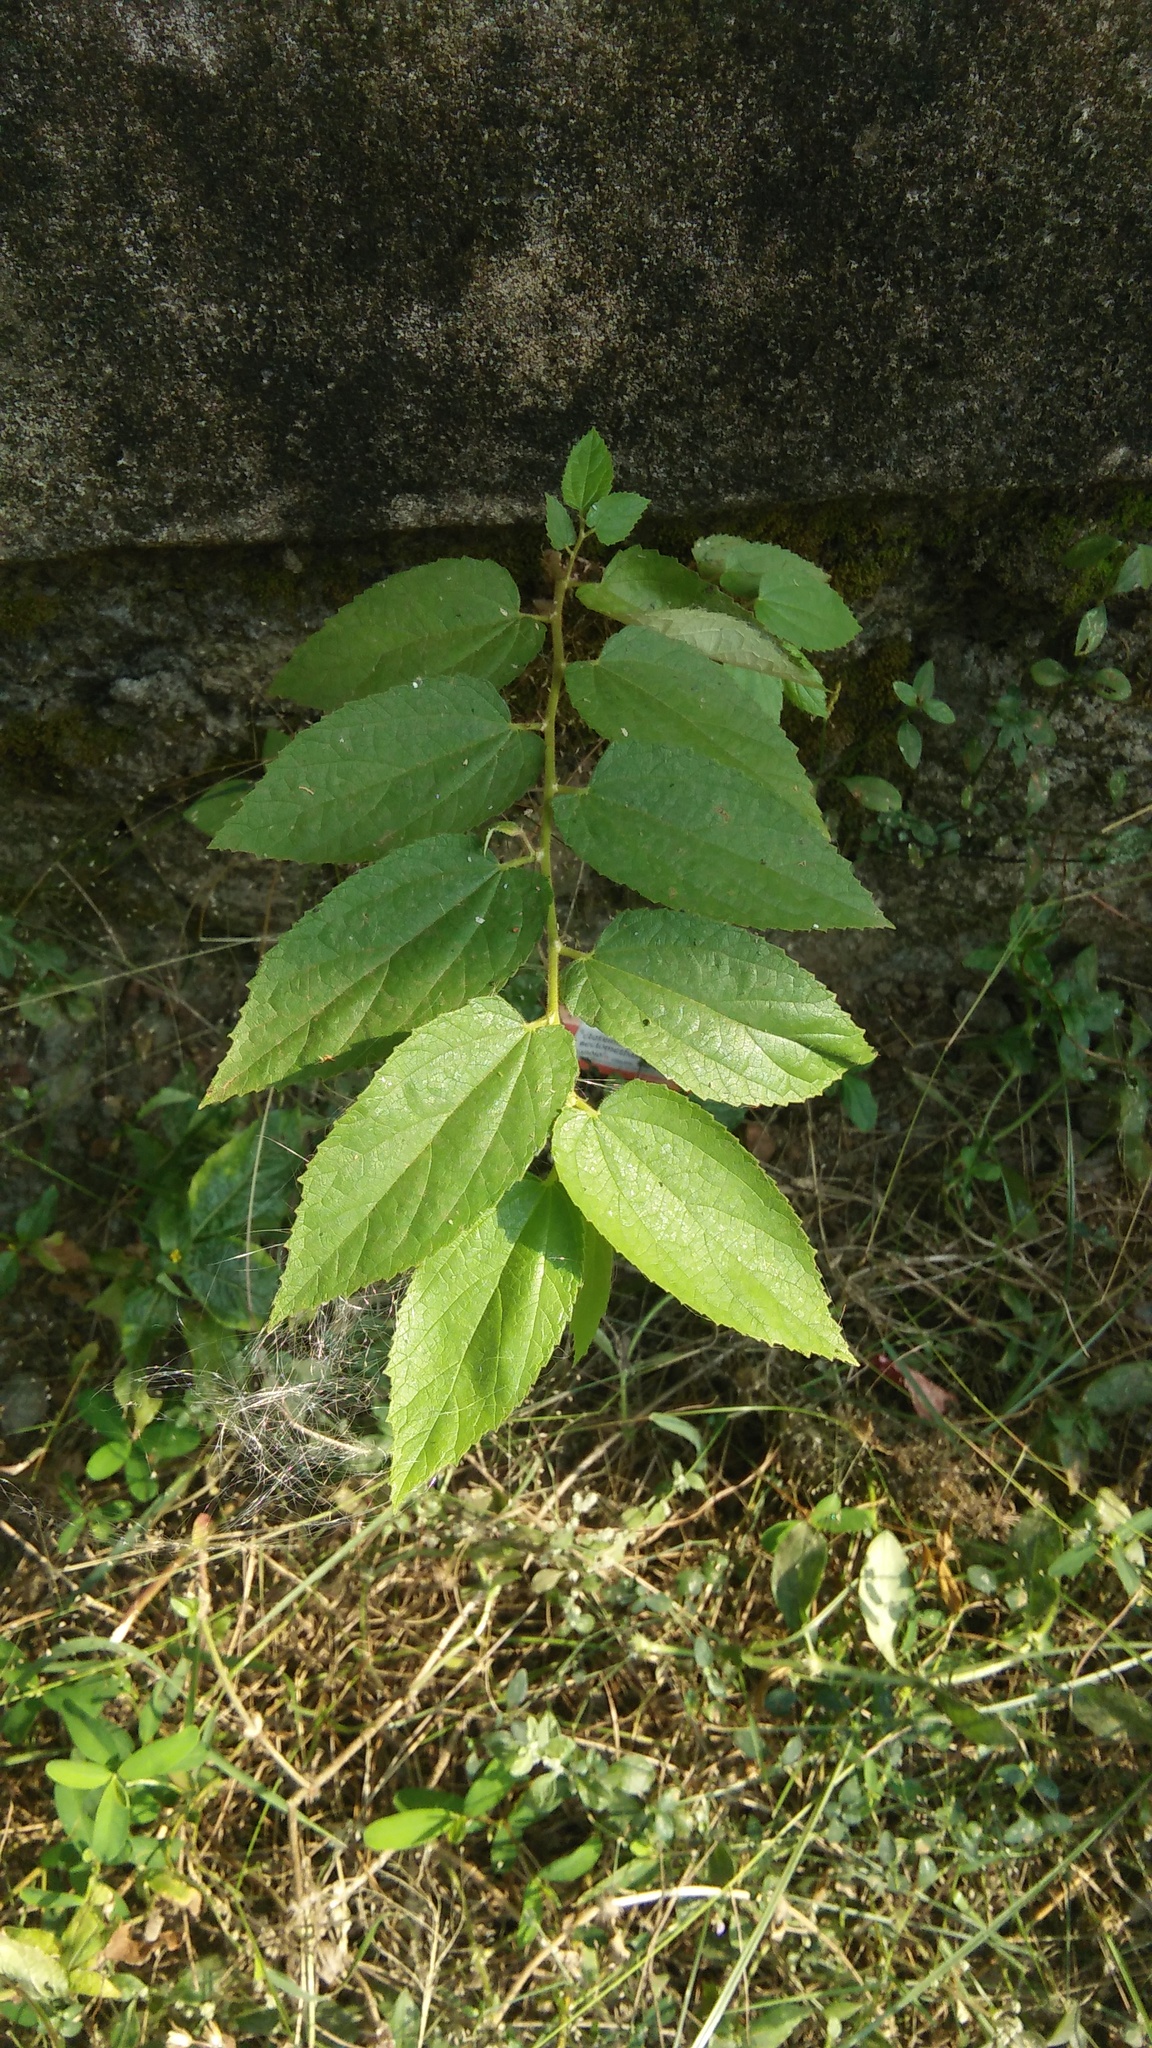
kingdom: Plantae
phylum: Tracheophyta
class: Magnoliopsida
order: Malvales
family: Muntingiaceae
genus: Muntingia
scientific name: Muntingia calabura
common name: Strawberrytree
